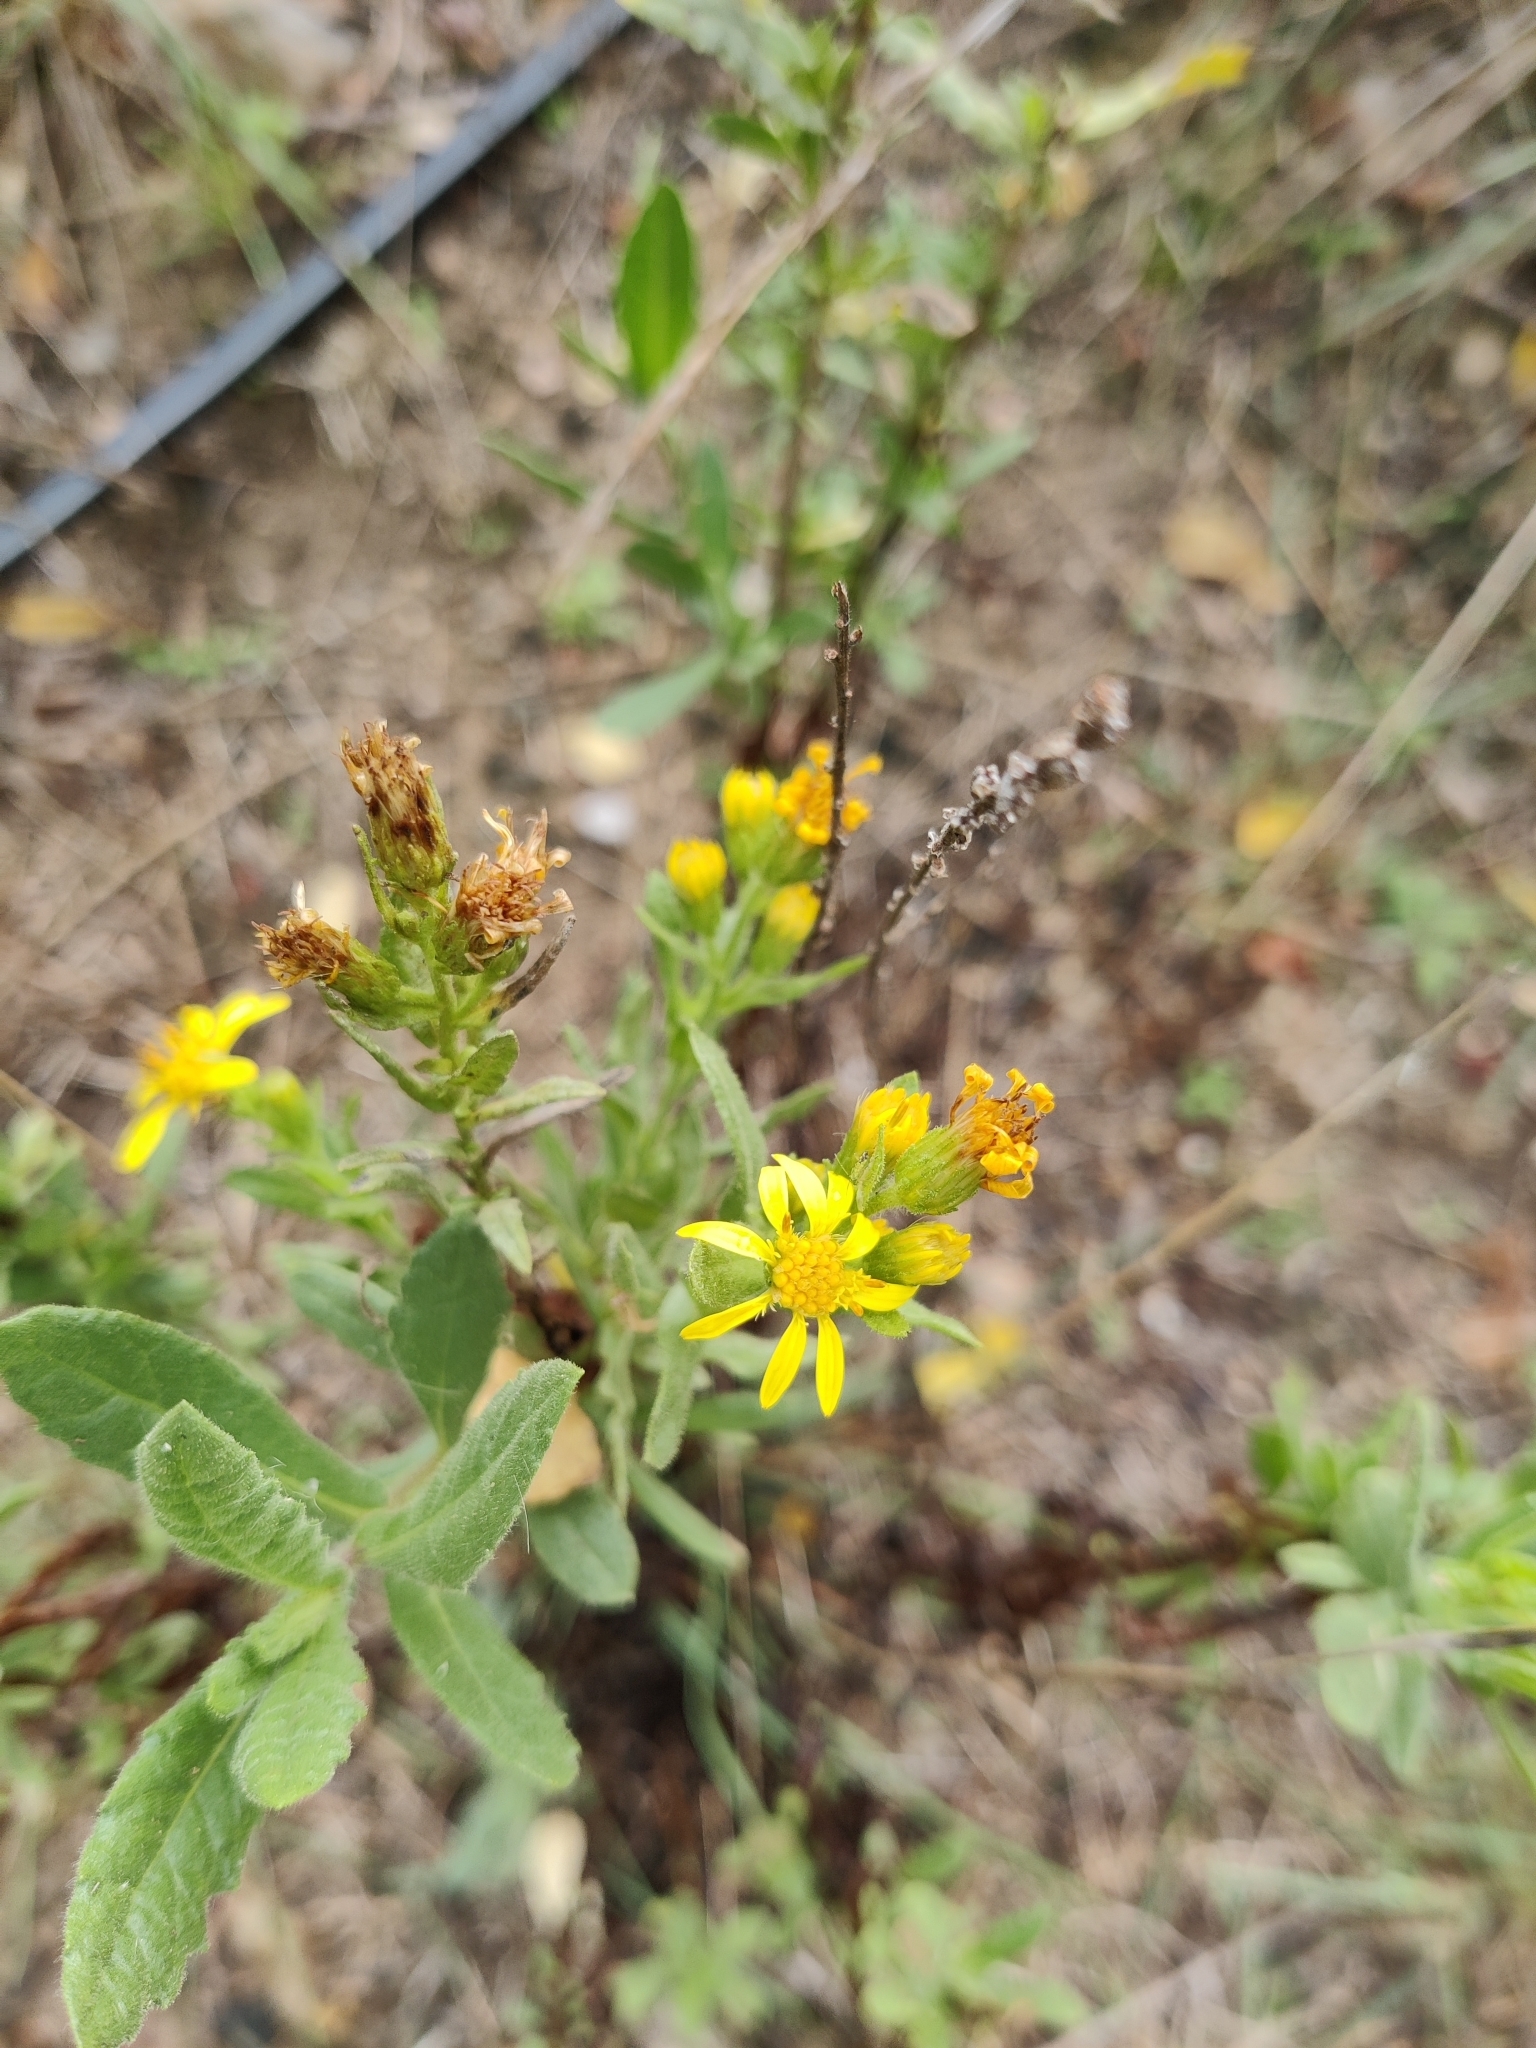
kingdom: Plantae
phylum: Tracheophyta
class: Magnoliopsida
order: Asterales
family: Asteraceae
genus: Dittrichia
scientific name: Dittrichia viscosa
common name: Woody fleabane
